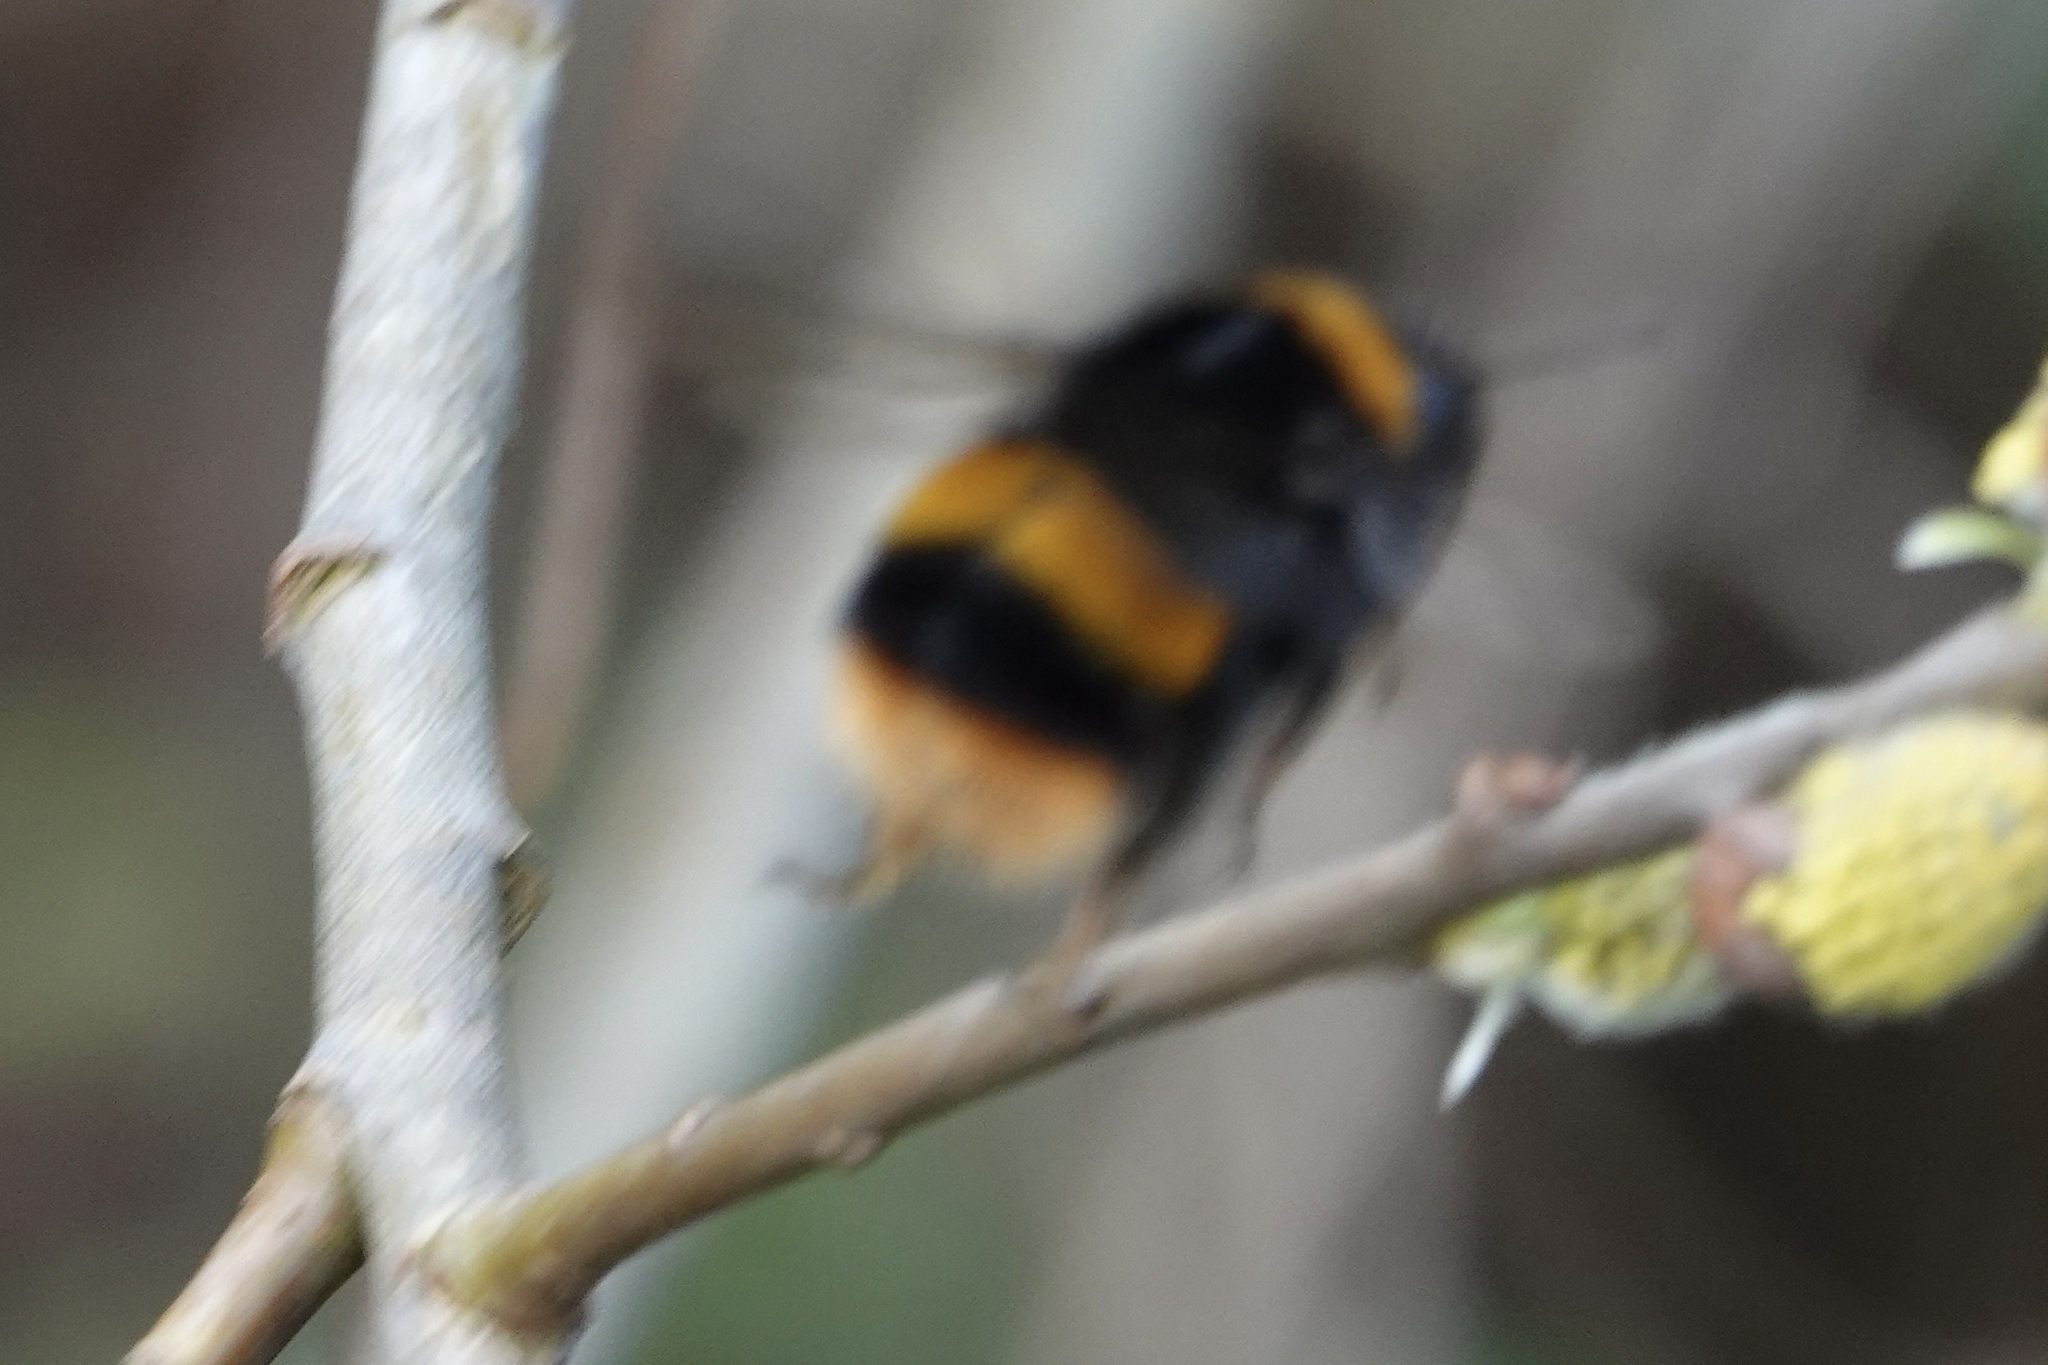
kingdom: Animalia
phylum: Arthropoda
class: Insecta
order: Hymenoptera
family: Apidae
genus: Bombus
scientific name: Bombus terrestris
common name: Buff-tailed bumblebee
